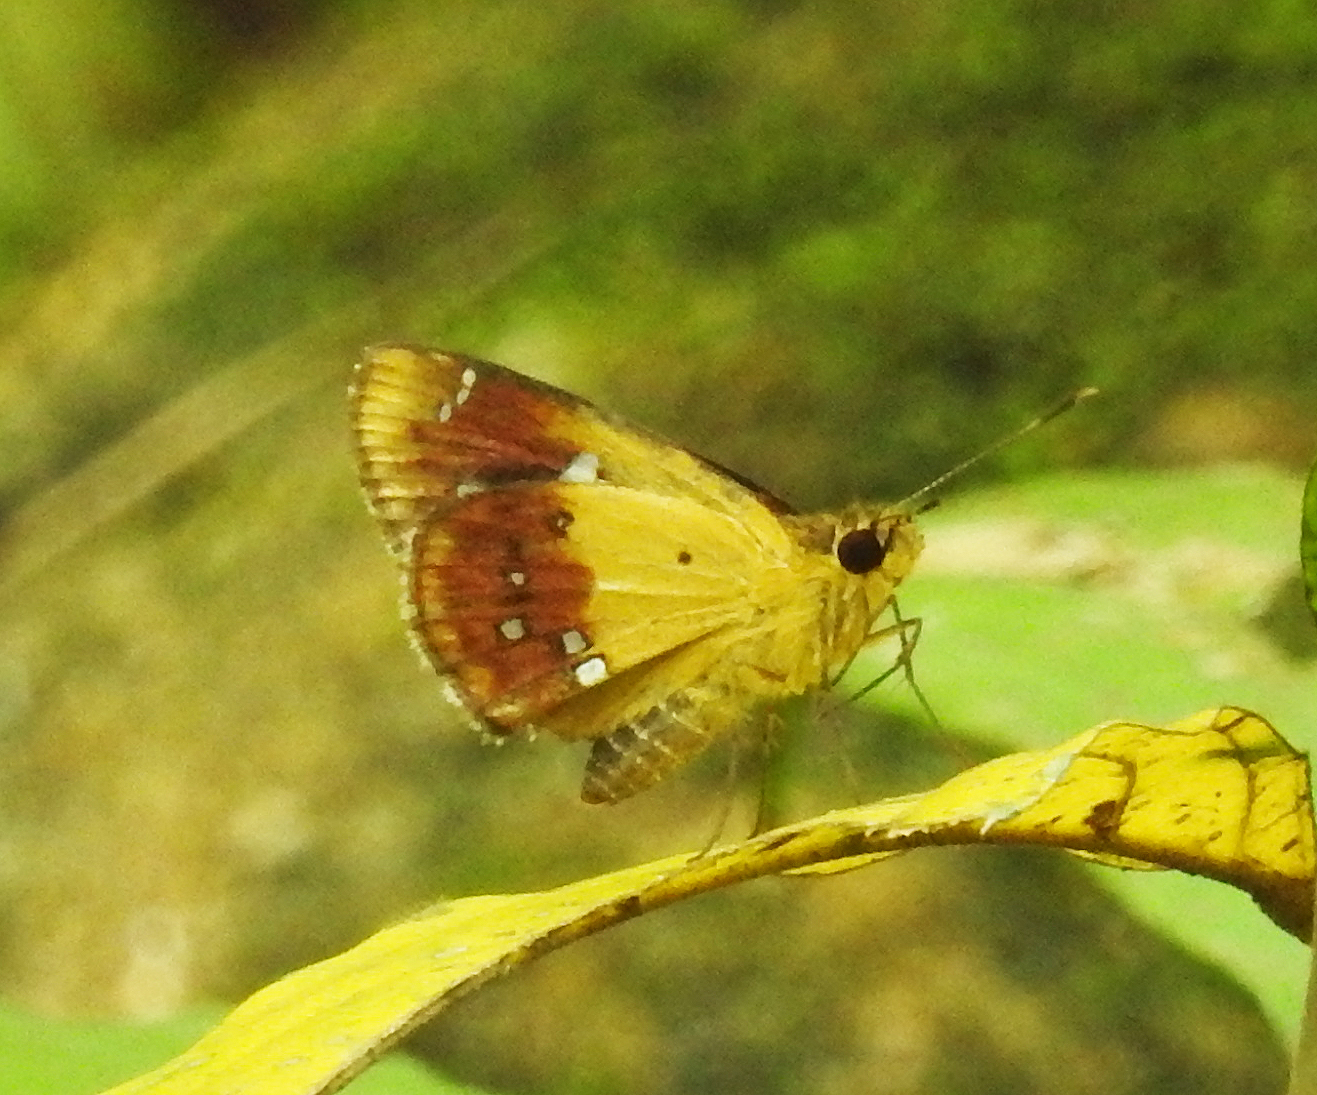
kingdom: Animalia
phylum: Arthropoda
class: Insecta
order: Lepidoptera
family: Hesperiidae
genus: Scobura
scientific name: Scobura cephaloides
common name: Large forest bob
